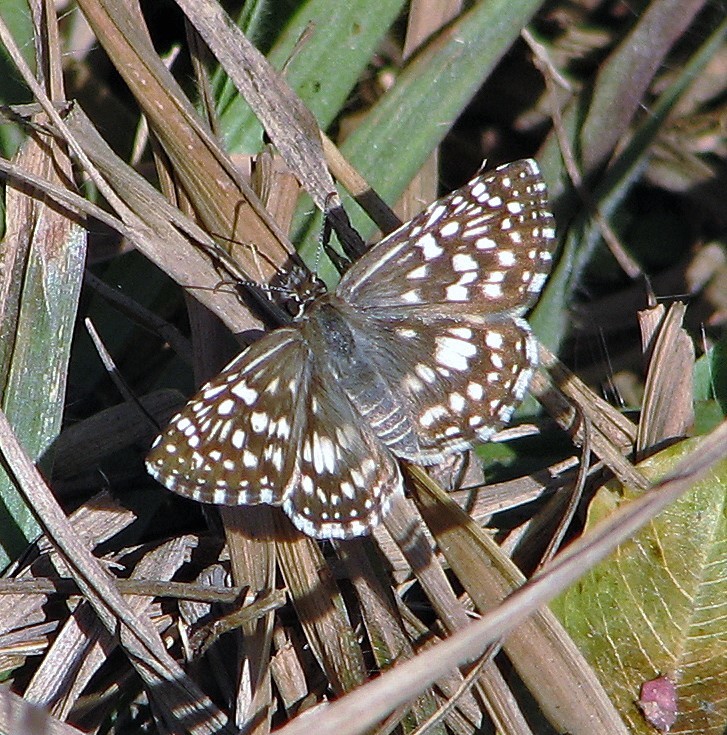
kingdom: Animalia
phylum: Arthropoda
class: Insecta
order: Lepidoptera
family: Hesperiidae
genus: Pyrgus
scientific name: Pyrgus oileus
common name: Tropical checkered-skipper
